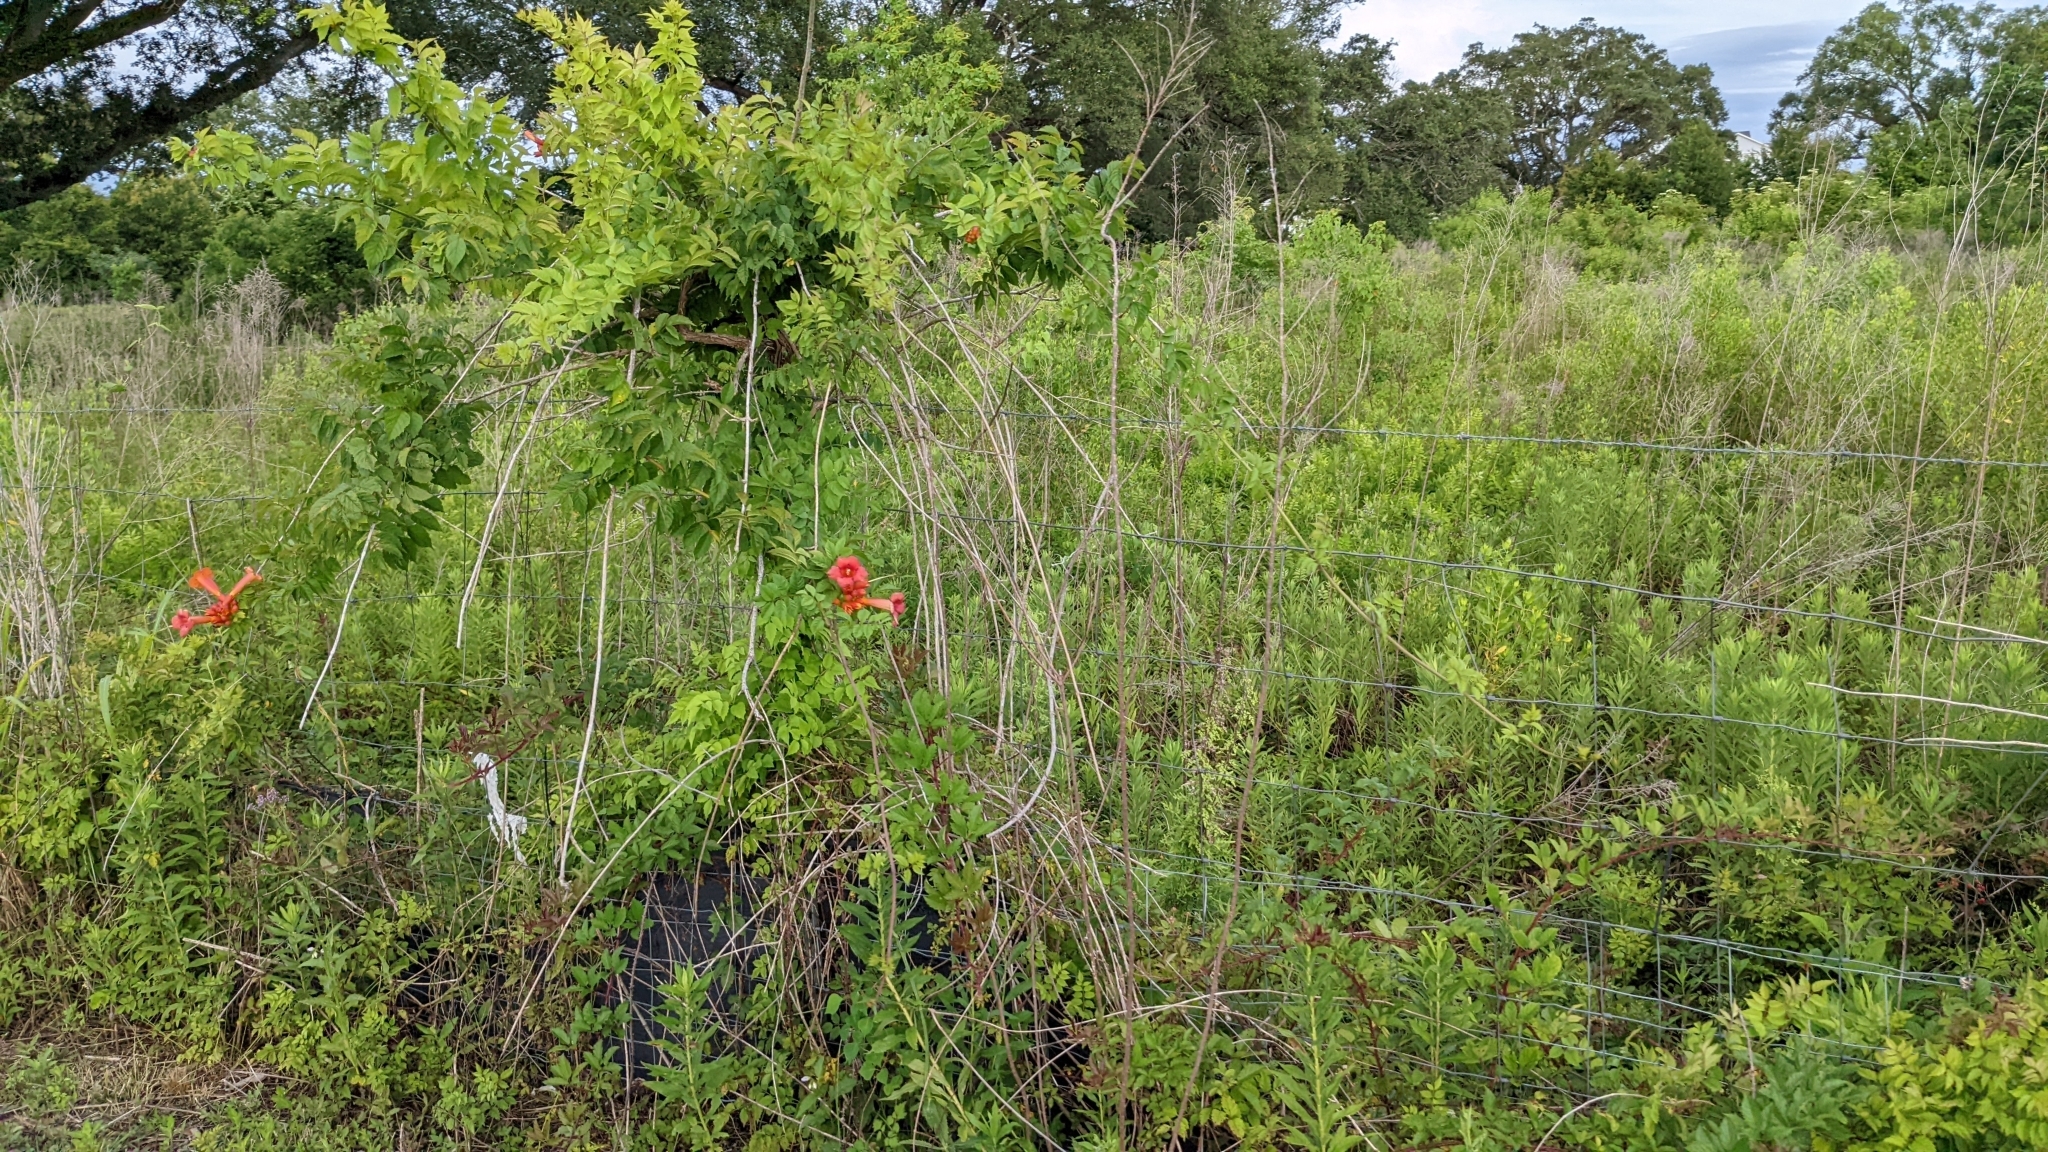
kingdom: Plantae
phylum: Tracheophyta
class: Magnoliopsida
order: Lamiales
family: Bignoniaceae
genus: Campsis
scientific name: Campsis radicans
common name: Trumpet-creeper
